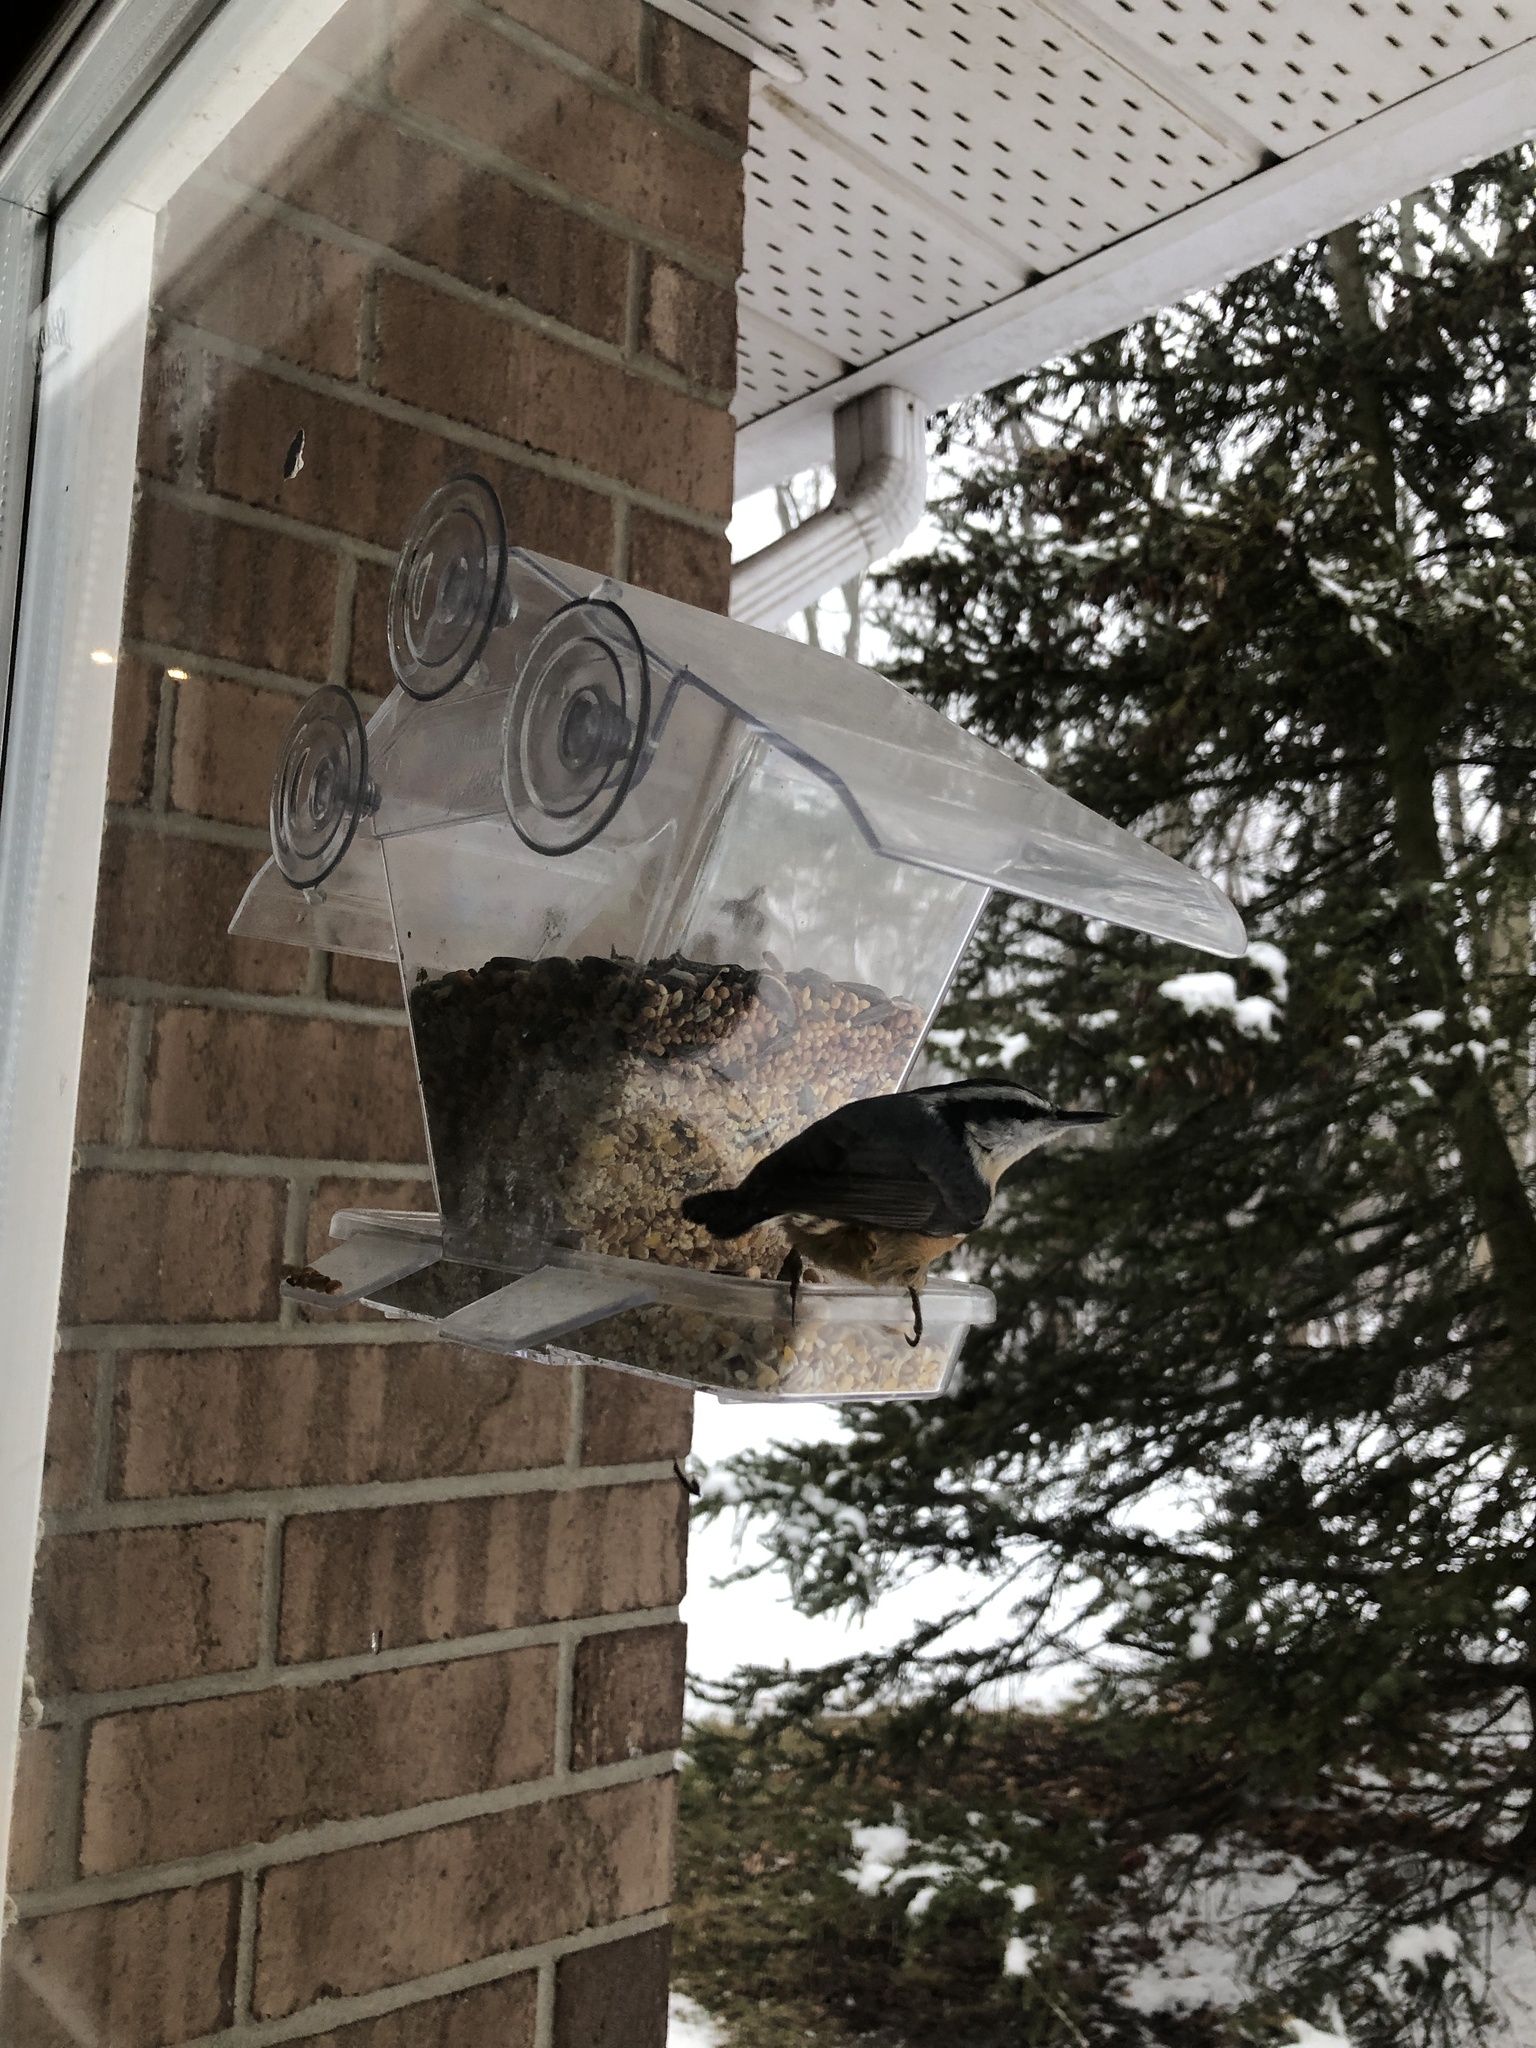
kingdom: Animalia
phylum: Chordata
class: Aves
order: Passeriformes
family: Sittidae
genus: Sitta
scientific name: Sitta canadensis
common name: Red-breasted nuthatch
